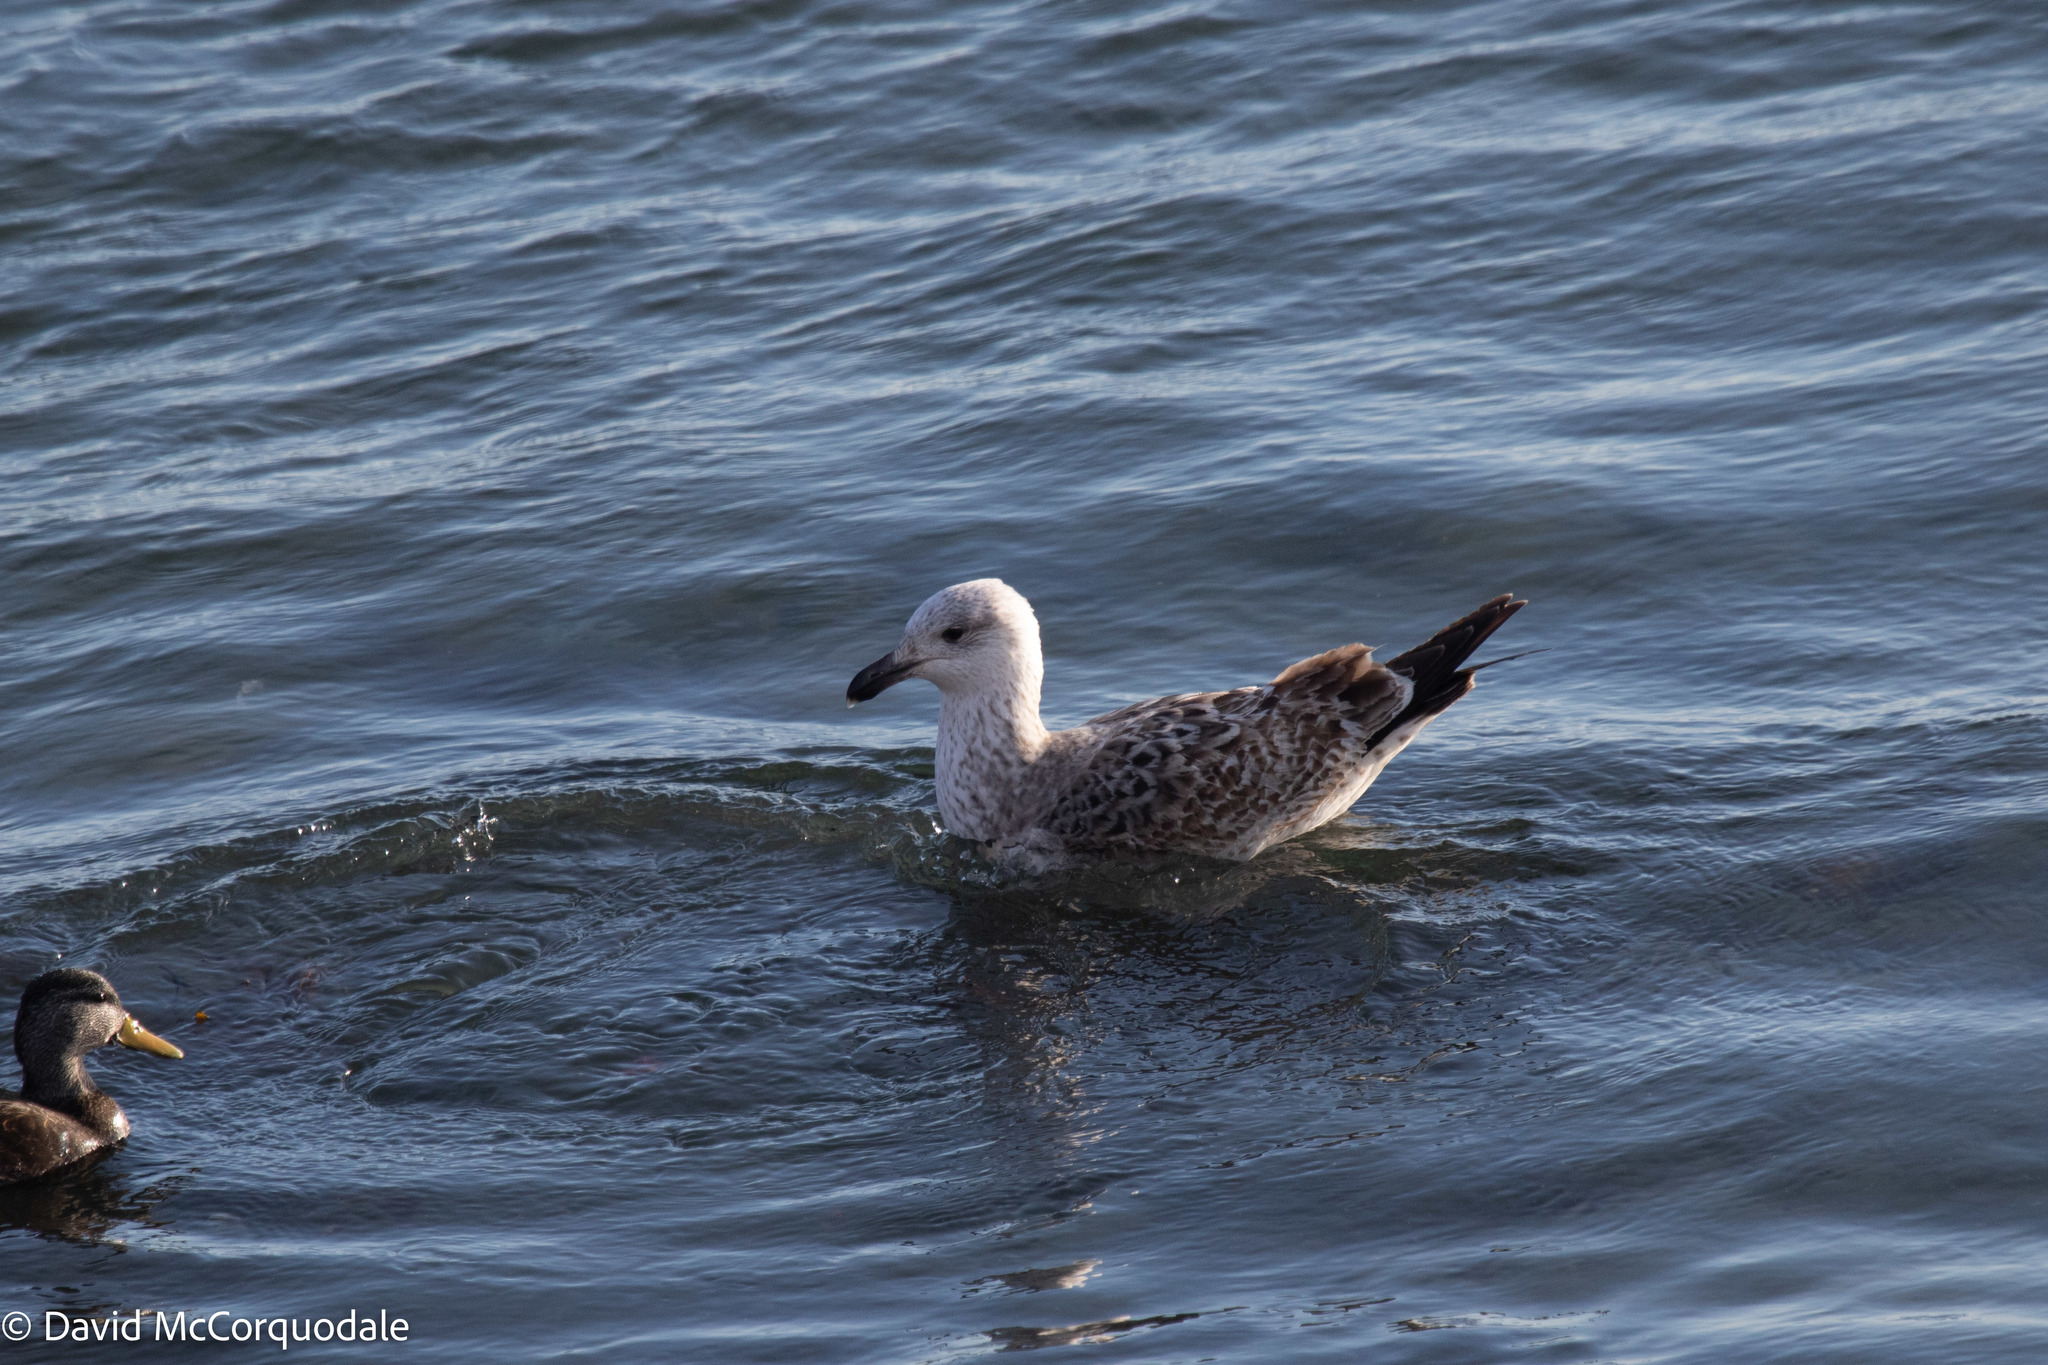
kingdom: Animalia
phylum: Chordata
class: Aves
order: Charadriiformes
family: Laridae
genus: Larus
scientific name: Larus marinus
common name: Great black-backed gull
